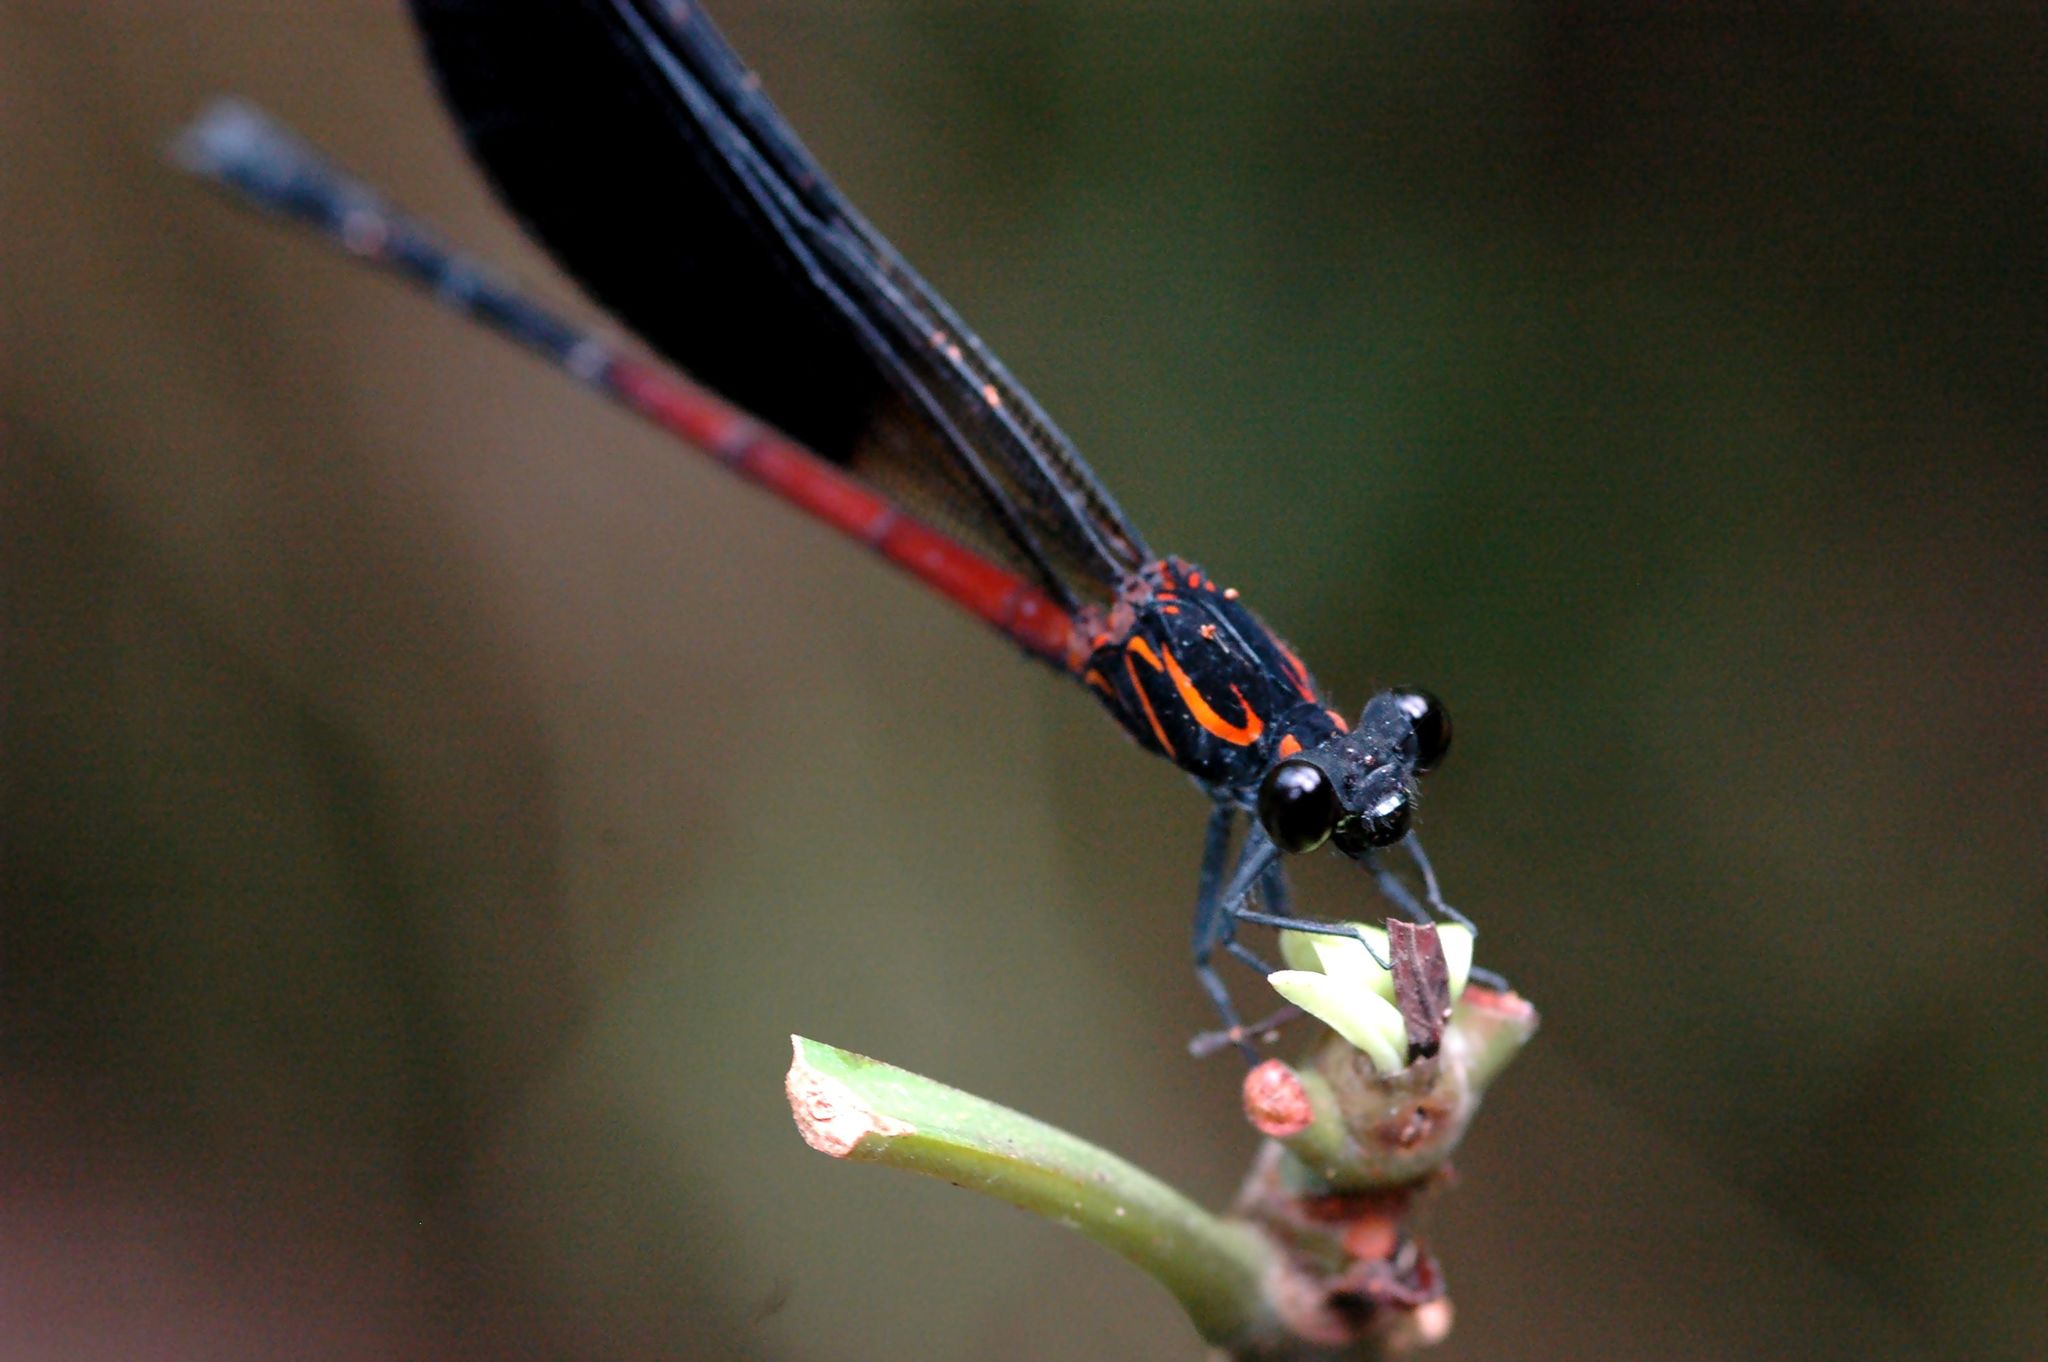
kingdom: Animalia
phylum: Arthropoda
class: Insecta
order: Odonata
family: Euphaeidae
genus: Euphaea
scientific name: Euphaea formosa
